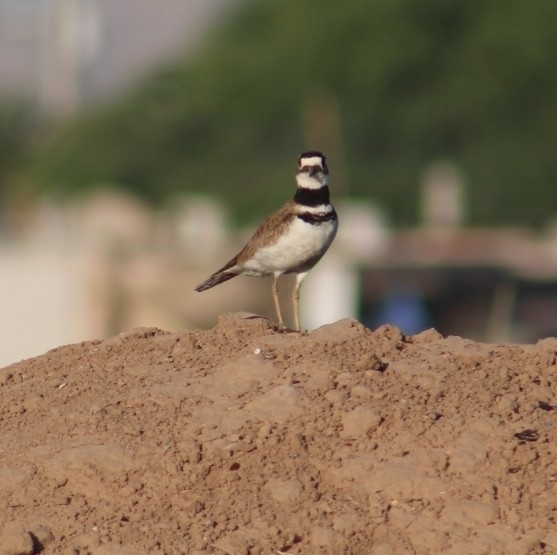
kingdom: Animalia
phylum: Chordata
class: Aves
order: Charadriiformes
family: Charadriidae
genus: Charadrius
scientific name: Charadrius vociferus
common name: Killdeer
